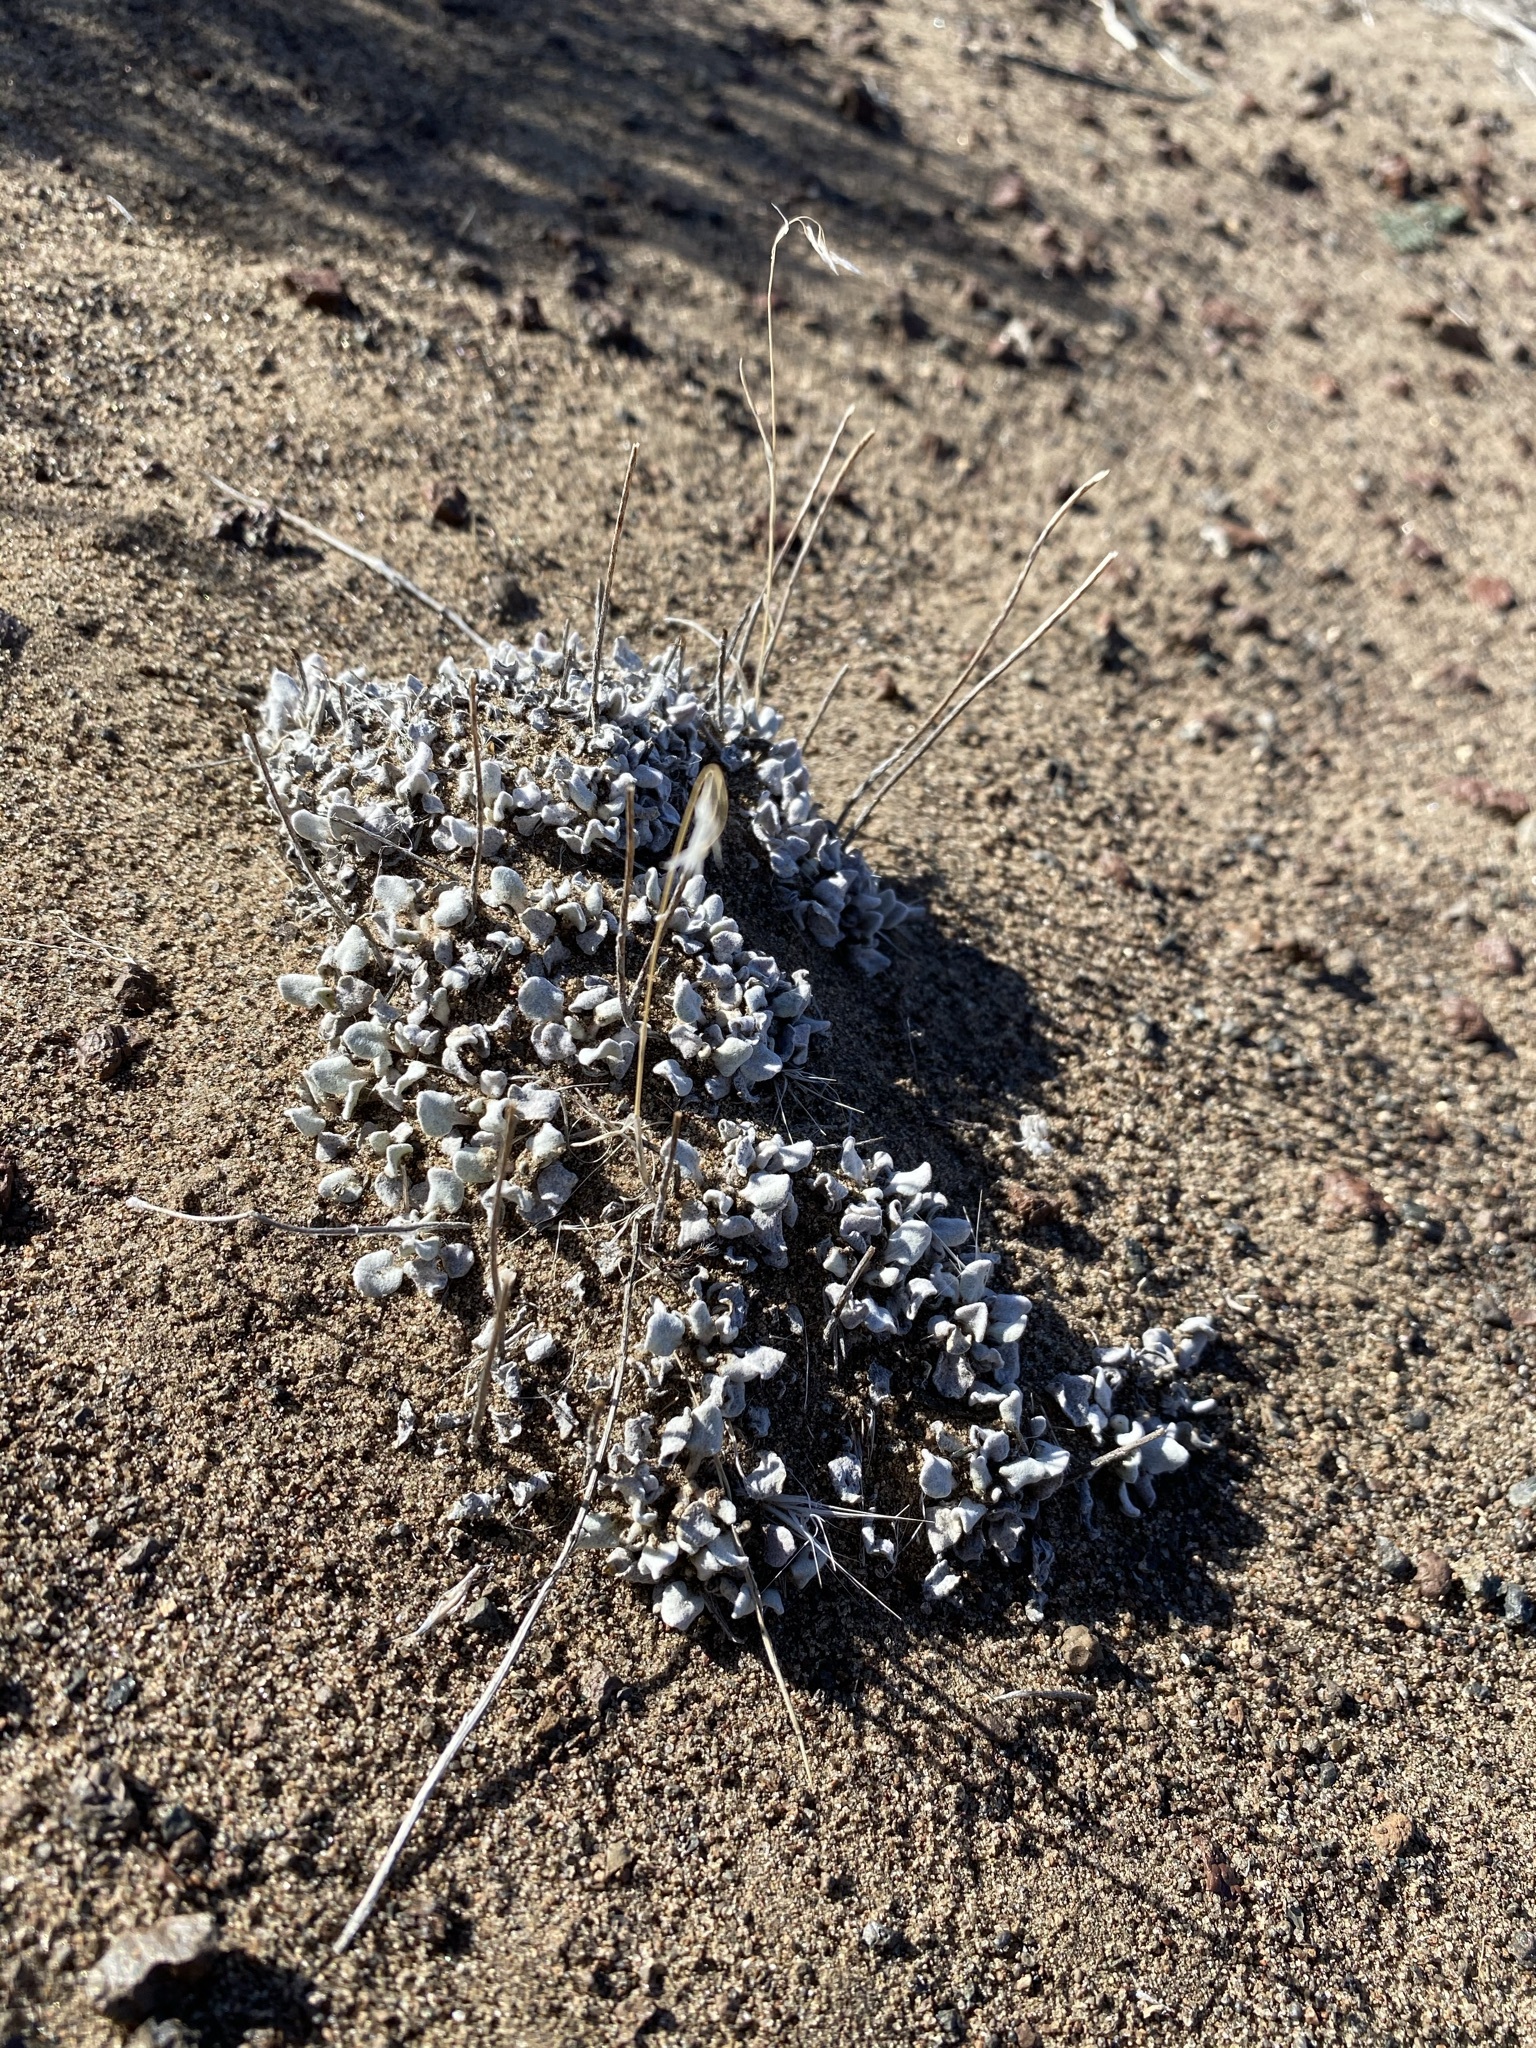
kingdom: Plantae
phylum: Tracheophyta
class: Magnoliopsida
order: Caryophyllales
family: Polygonaceae
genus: Eriogonum
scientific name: Eriogonum ovalifolium
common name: Cushion buckwheat
